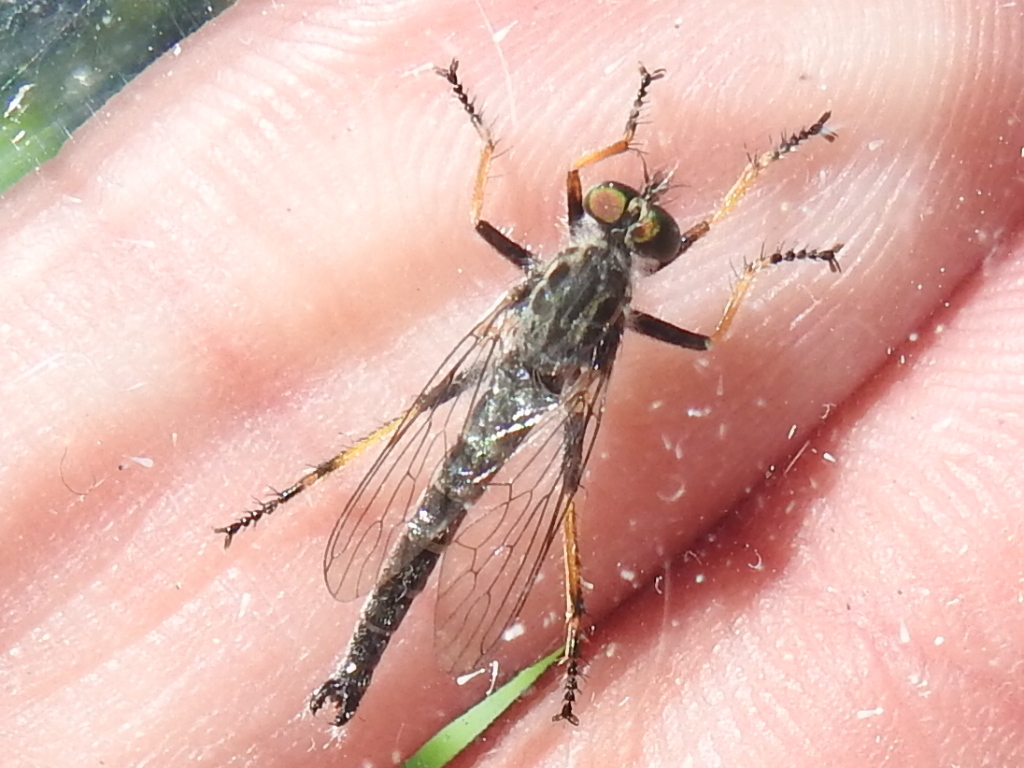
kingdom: Animalia
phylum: Arthropoda
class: Insecta
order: Diptera
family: Asilidae
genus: Asilus
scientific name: Asilus flavofemoratus
